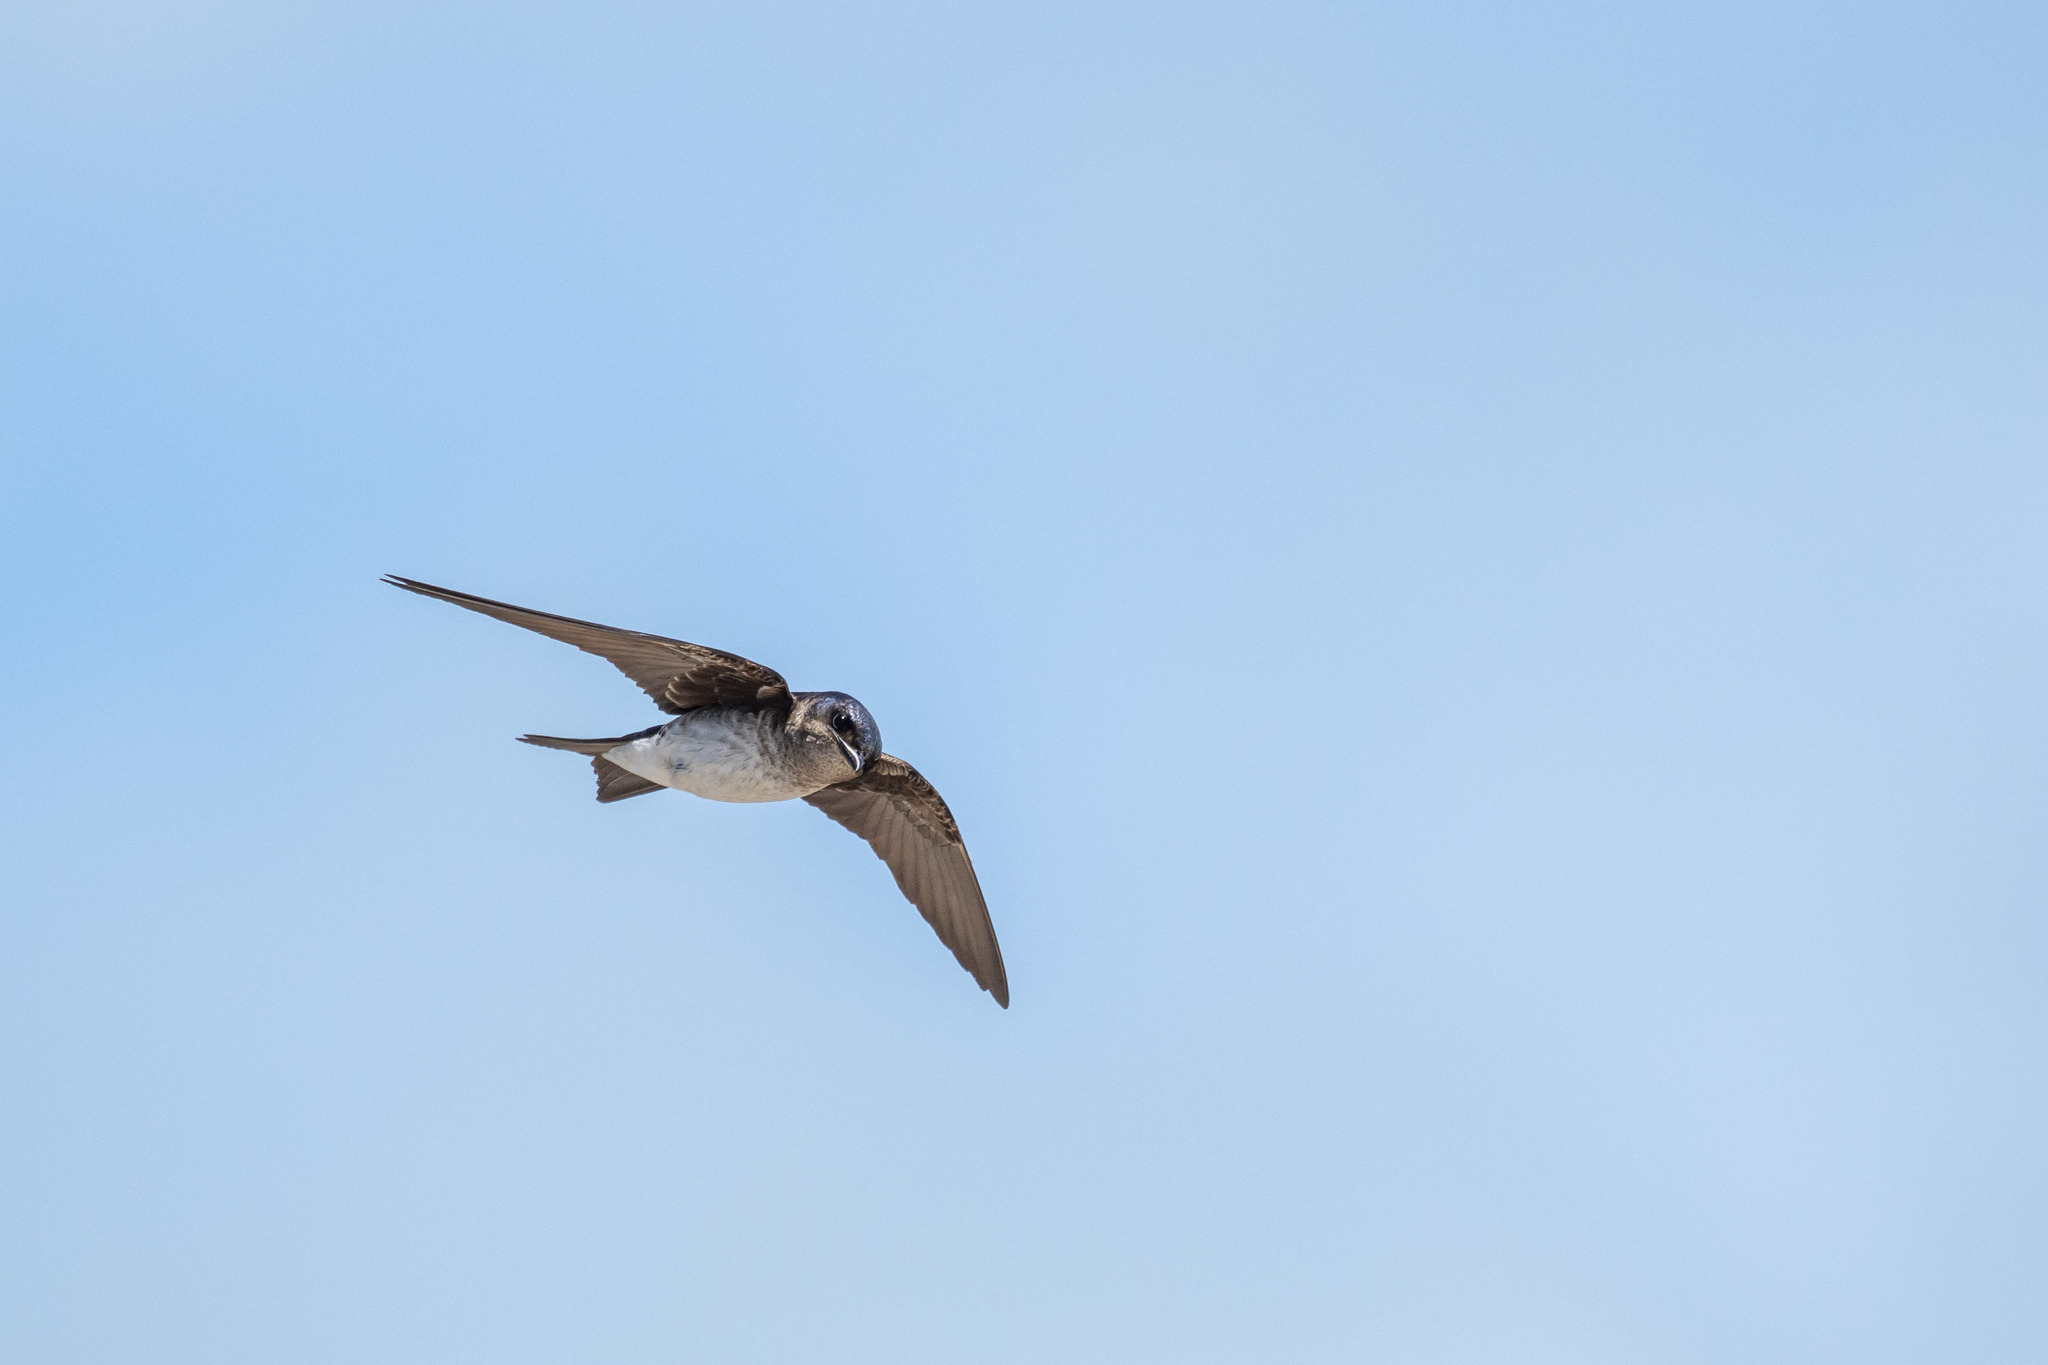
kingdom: Animalia
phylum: Chordata
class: Aves
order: Passeriformes
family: Hirundinidae
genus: Progne
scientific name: Progne chalybea
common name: Grey-breasted martin
